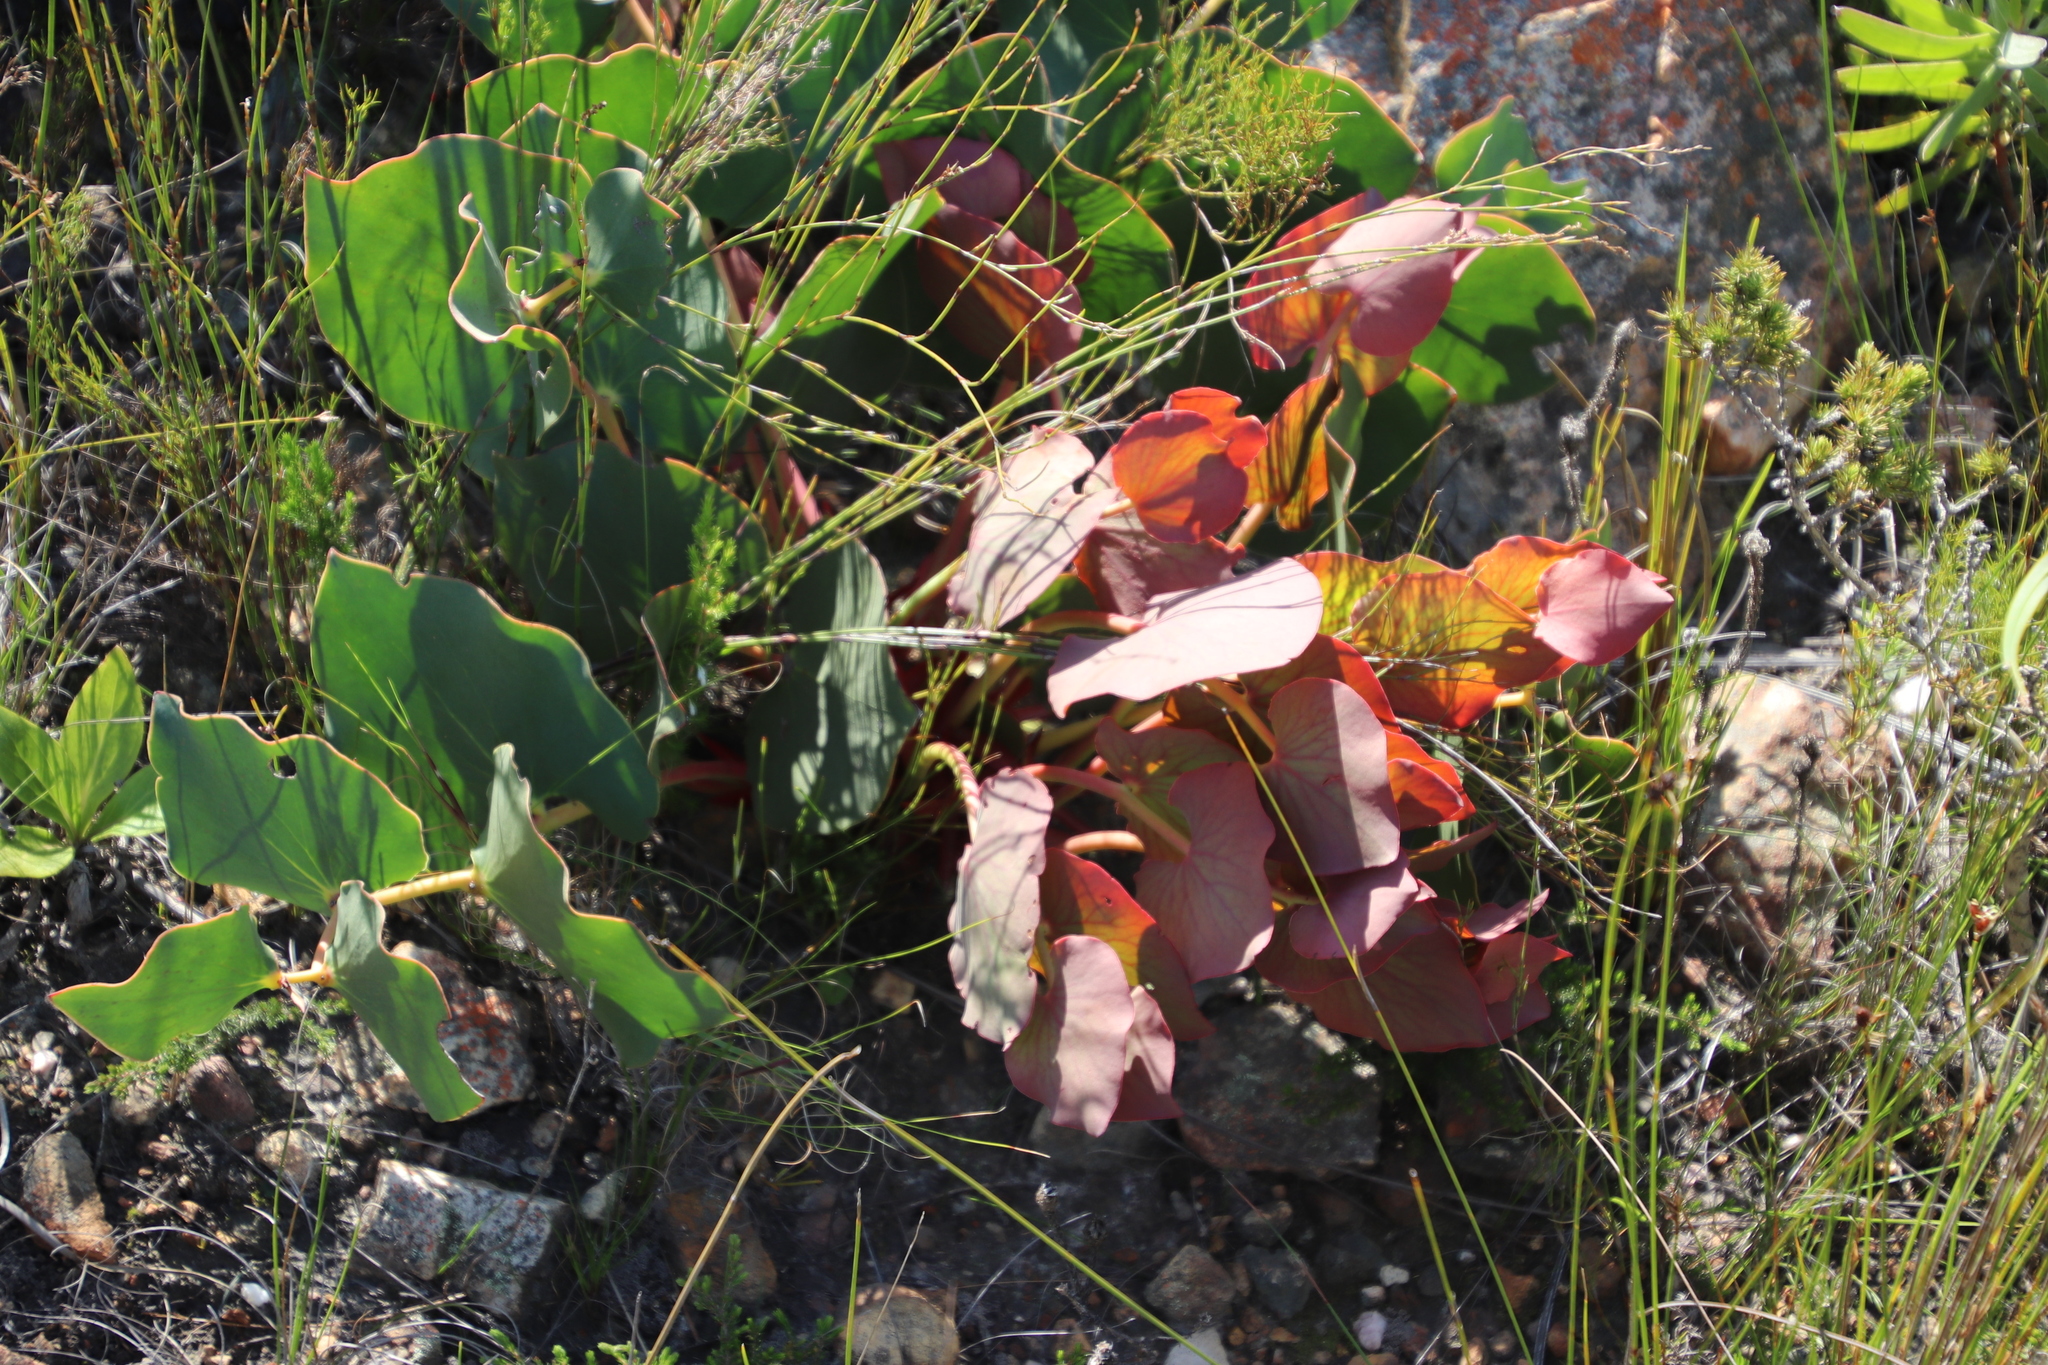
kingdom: Plantae
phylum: Tracheophyta
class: Magnoliopsida
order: Proteales
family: Proteaceae
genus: Protea
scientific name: Protea cordata
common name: Heart-leaf sugarbush
